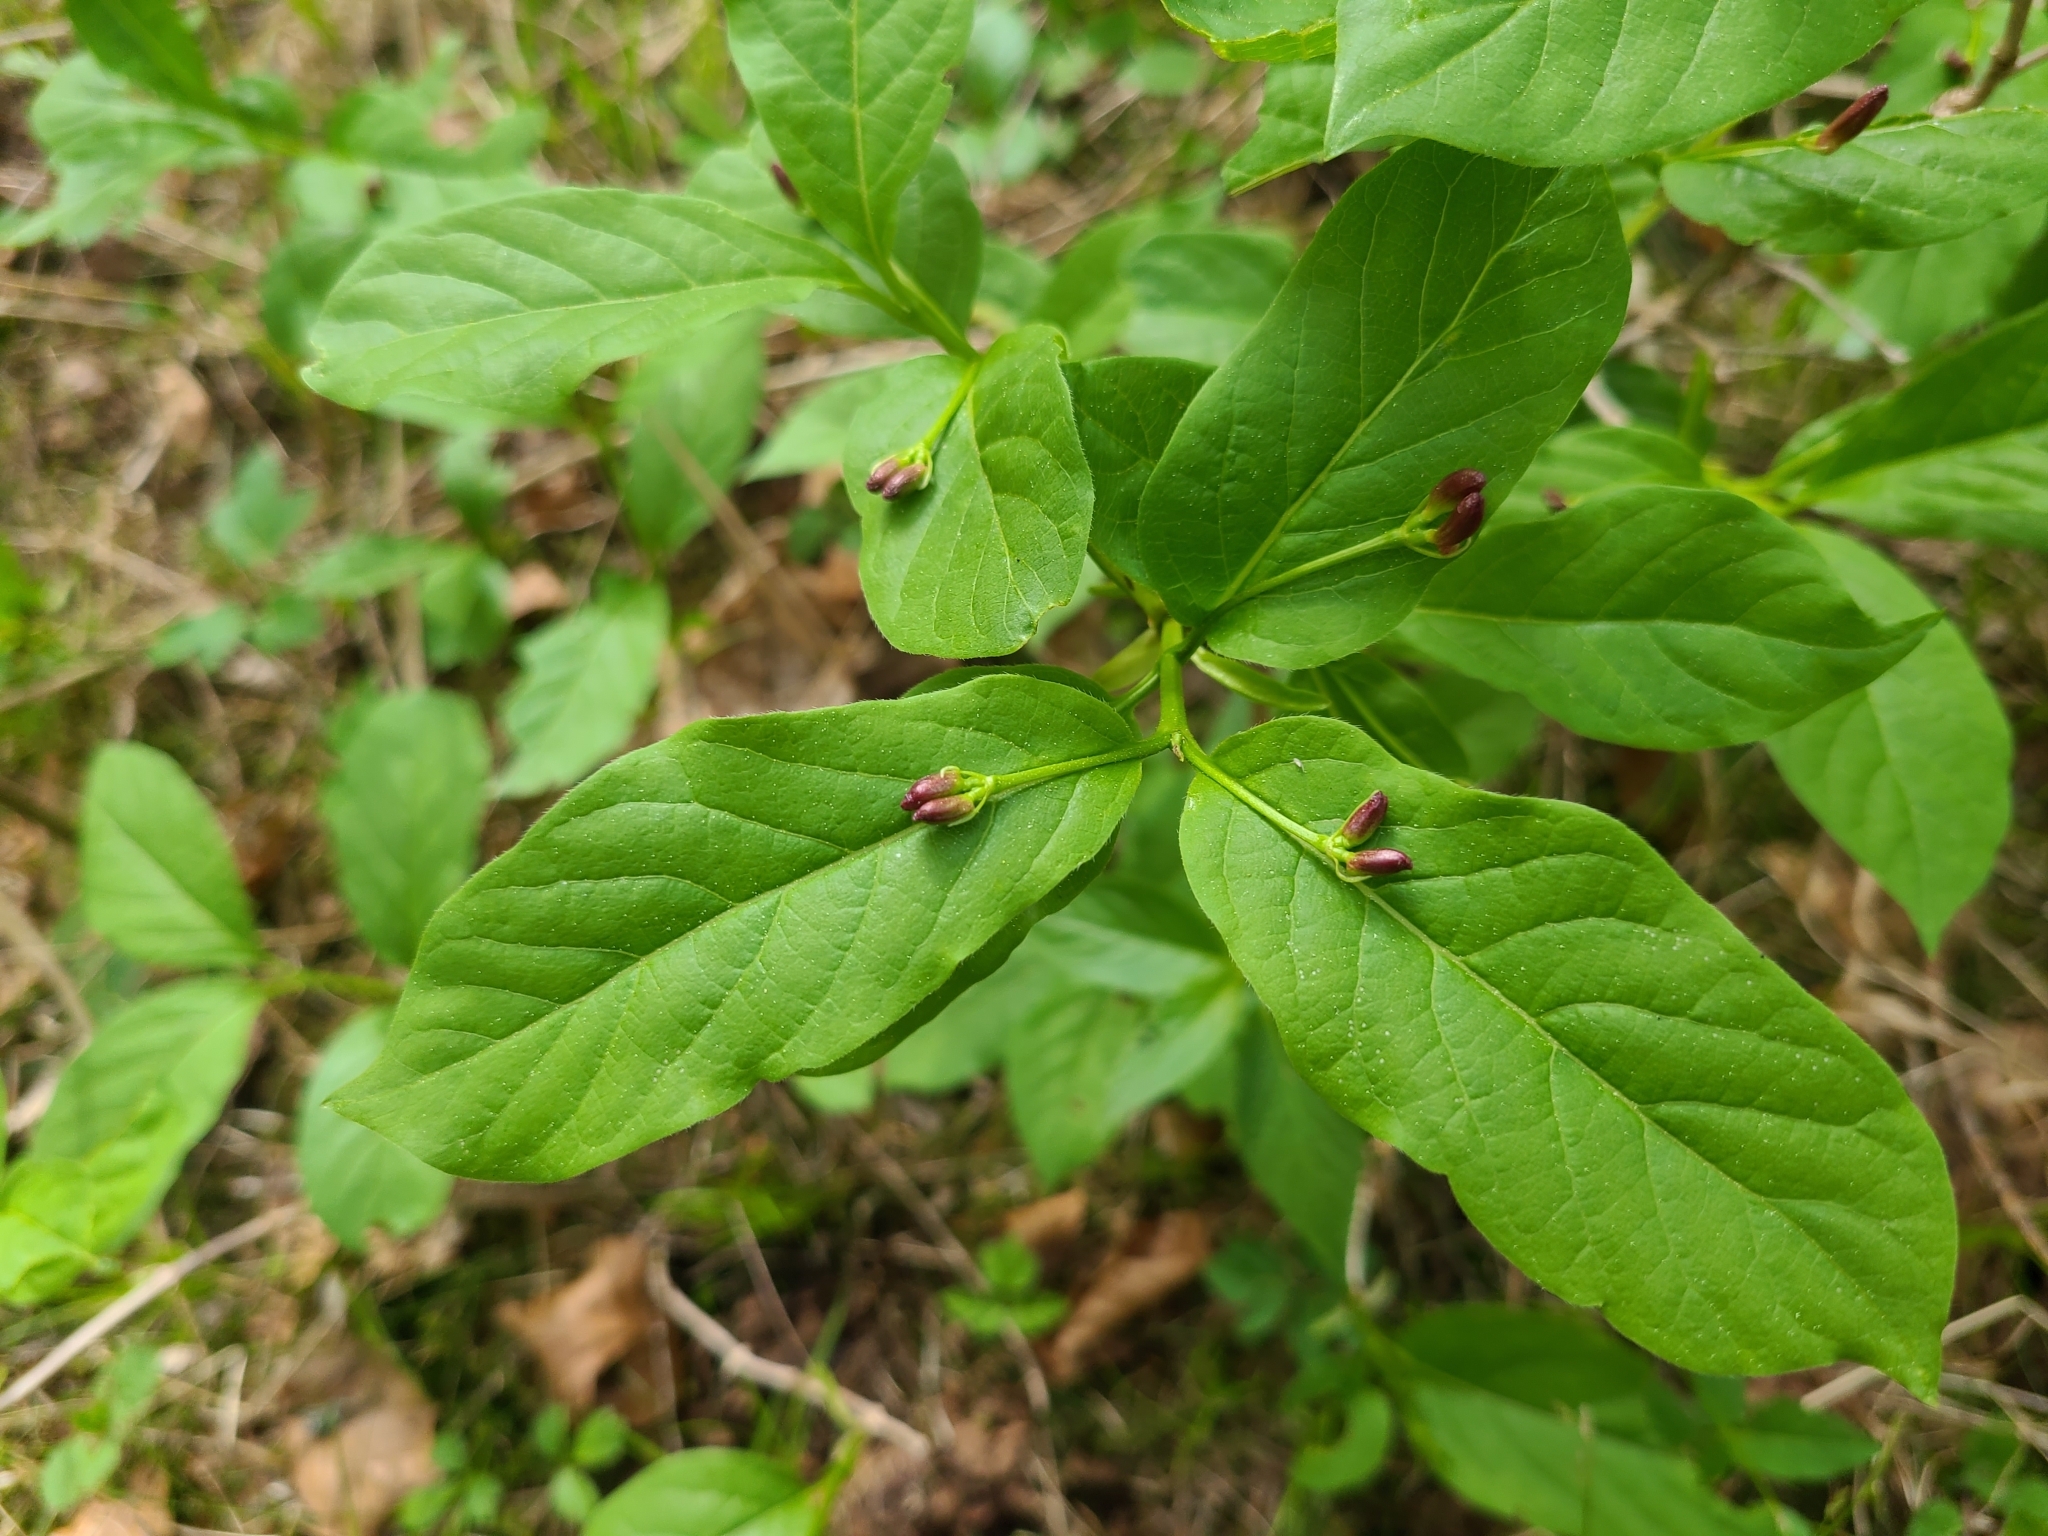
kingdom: Plantae
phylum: Tracheophyta
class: Magnoliopsida
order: Dipsacales
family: Caprifoliaceae
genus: Lonicera
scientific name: Lonicera alpigena
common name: Alpine honeysuckle
